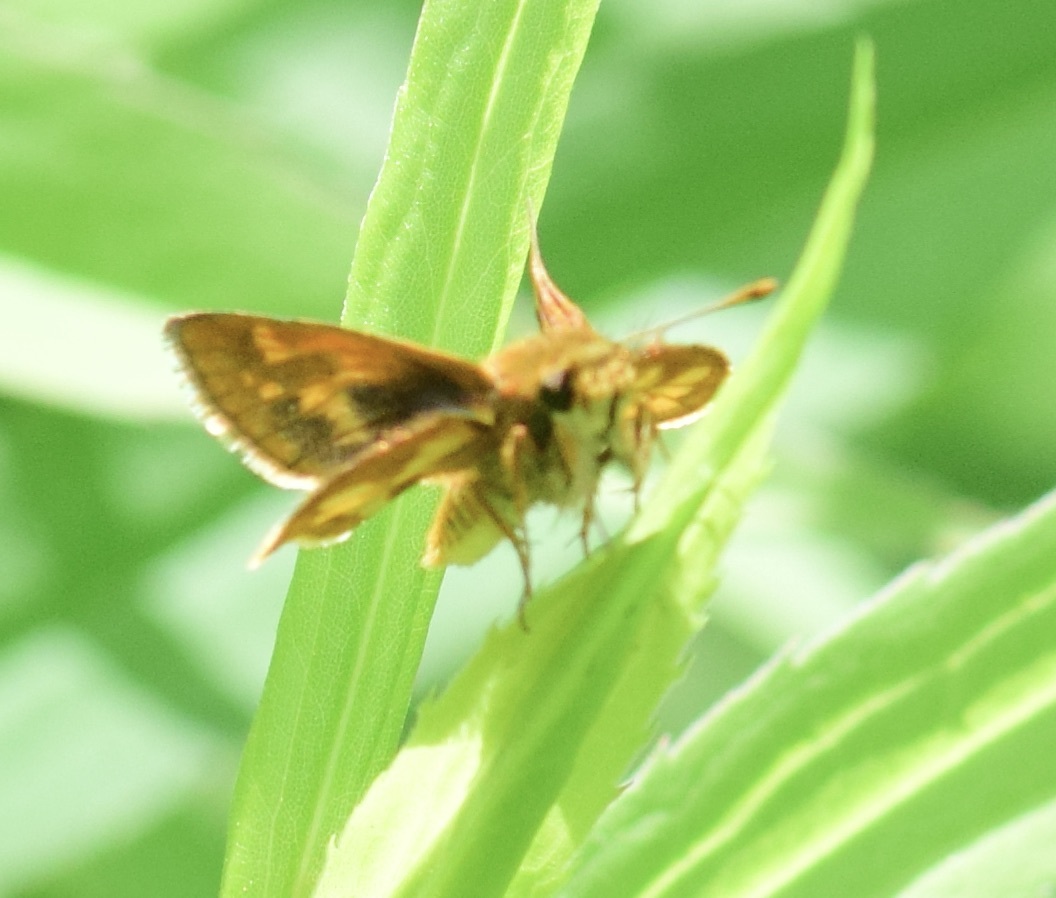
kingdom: Animalia
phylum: Arthropoda
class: Insecta
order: Lepidoptera
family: Hesperiidae
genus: Polites
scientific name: Polites coras
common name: Peck's skipper
